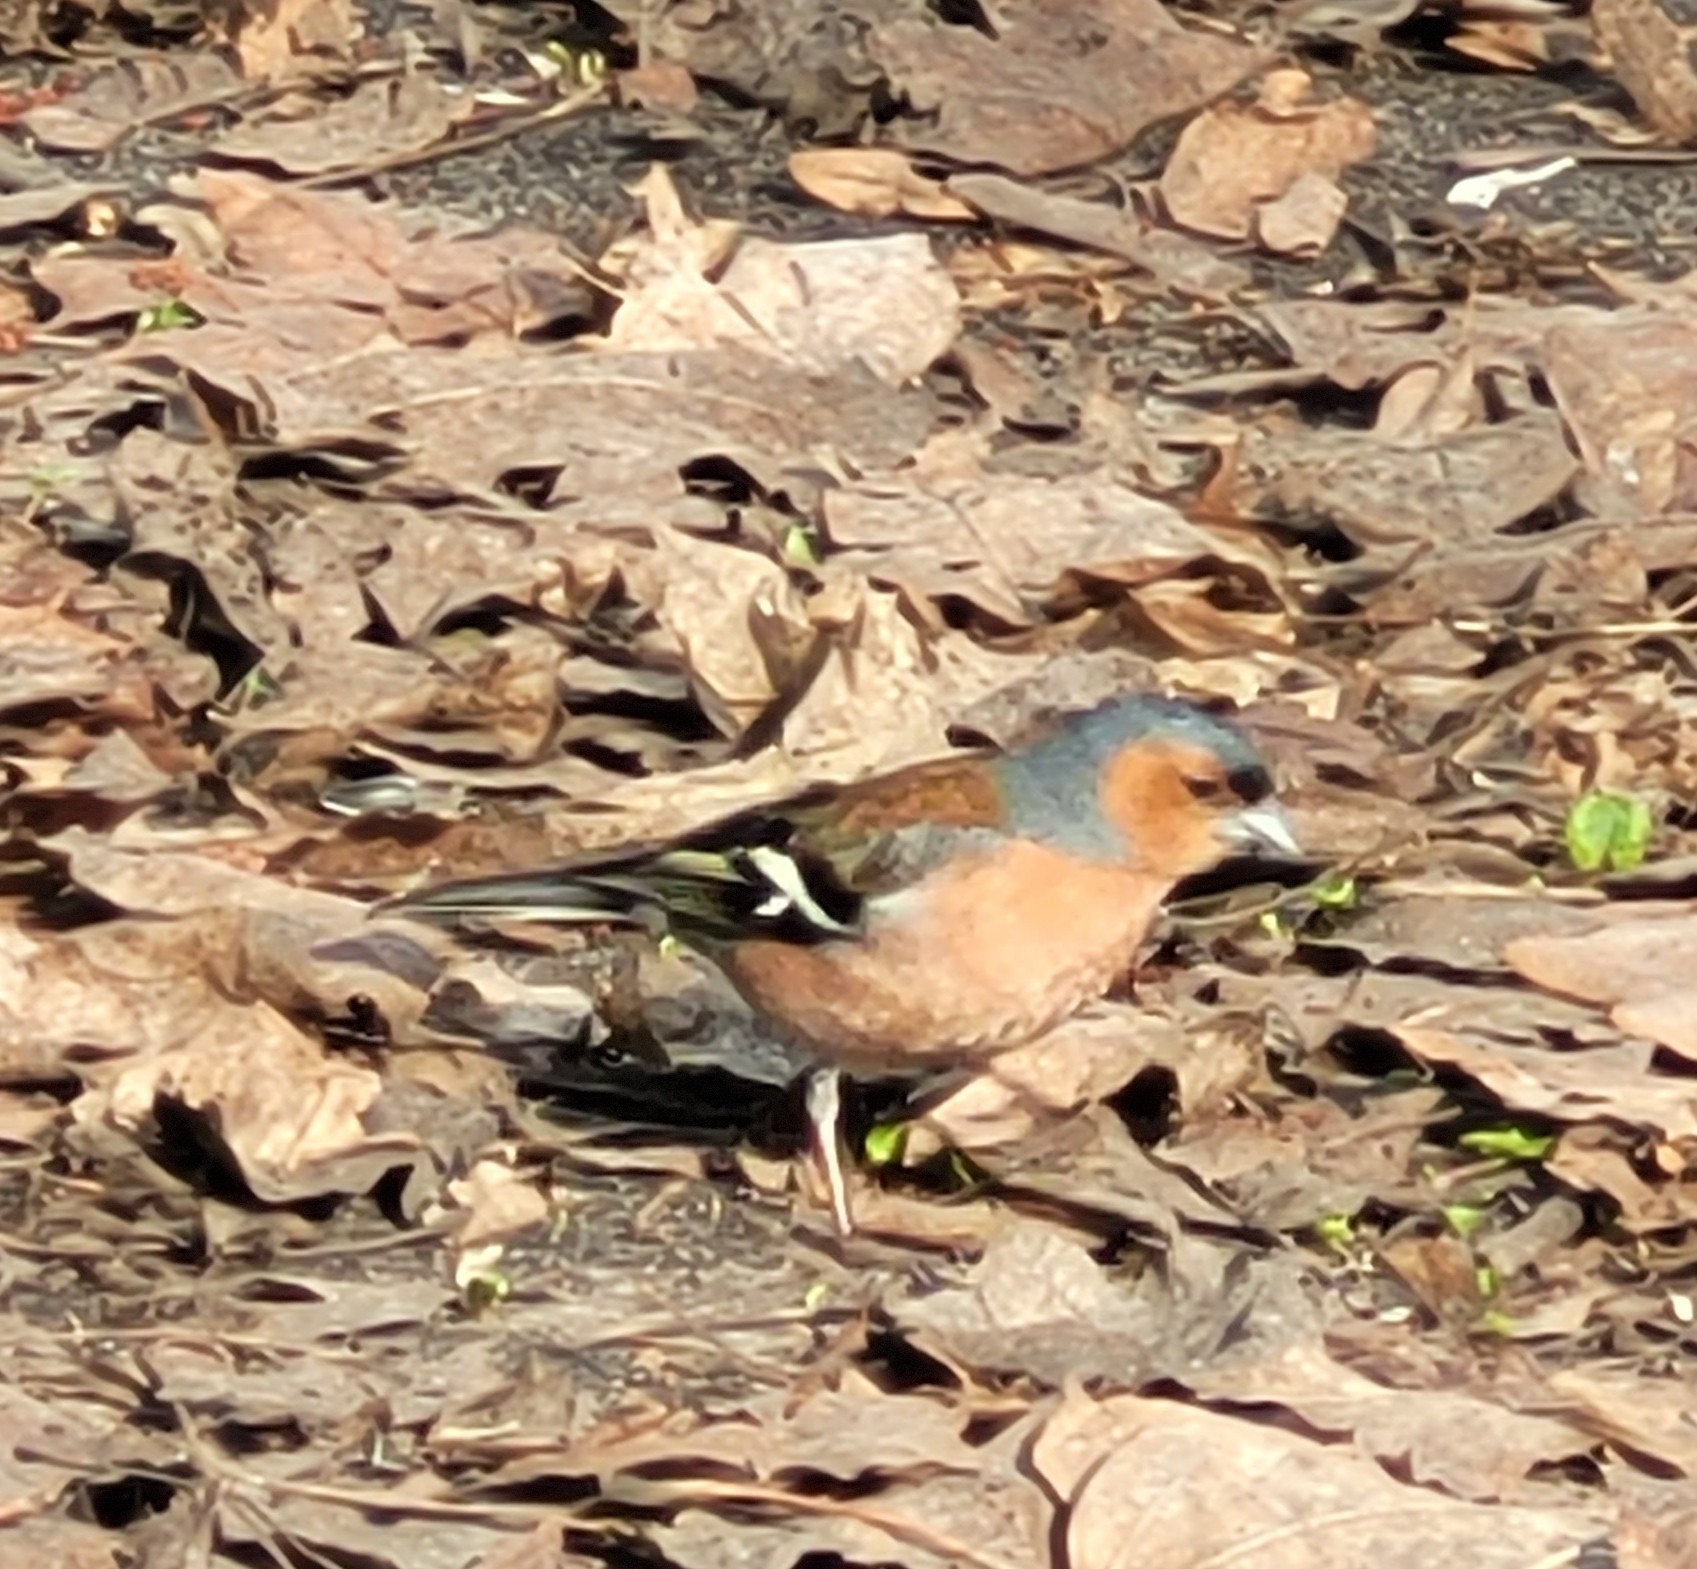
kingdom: Animalia
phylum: Chordata
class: Aves
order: Passeriformes
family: Fringillidae
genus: Fringilla
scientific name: Fringilla coelebs
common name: Common chaffinch
